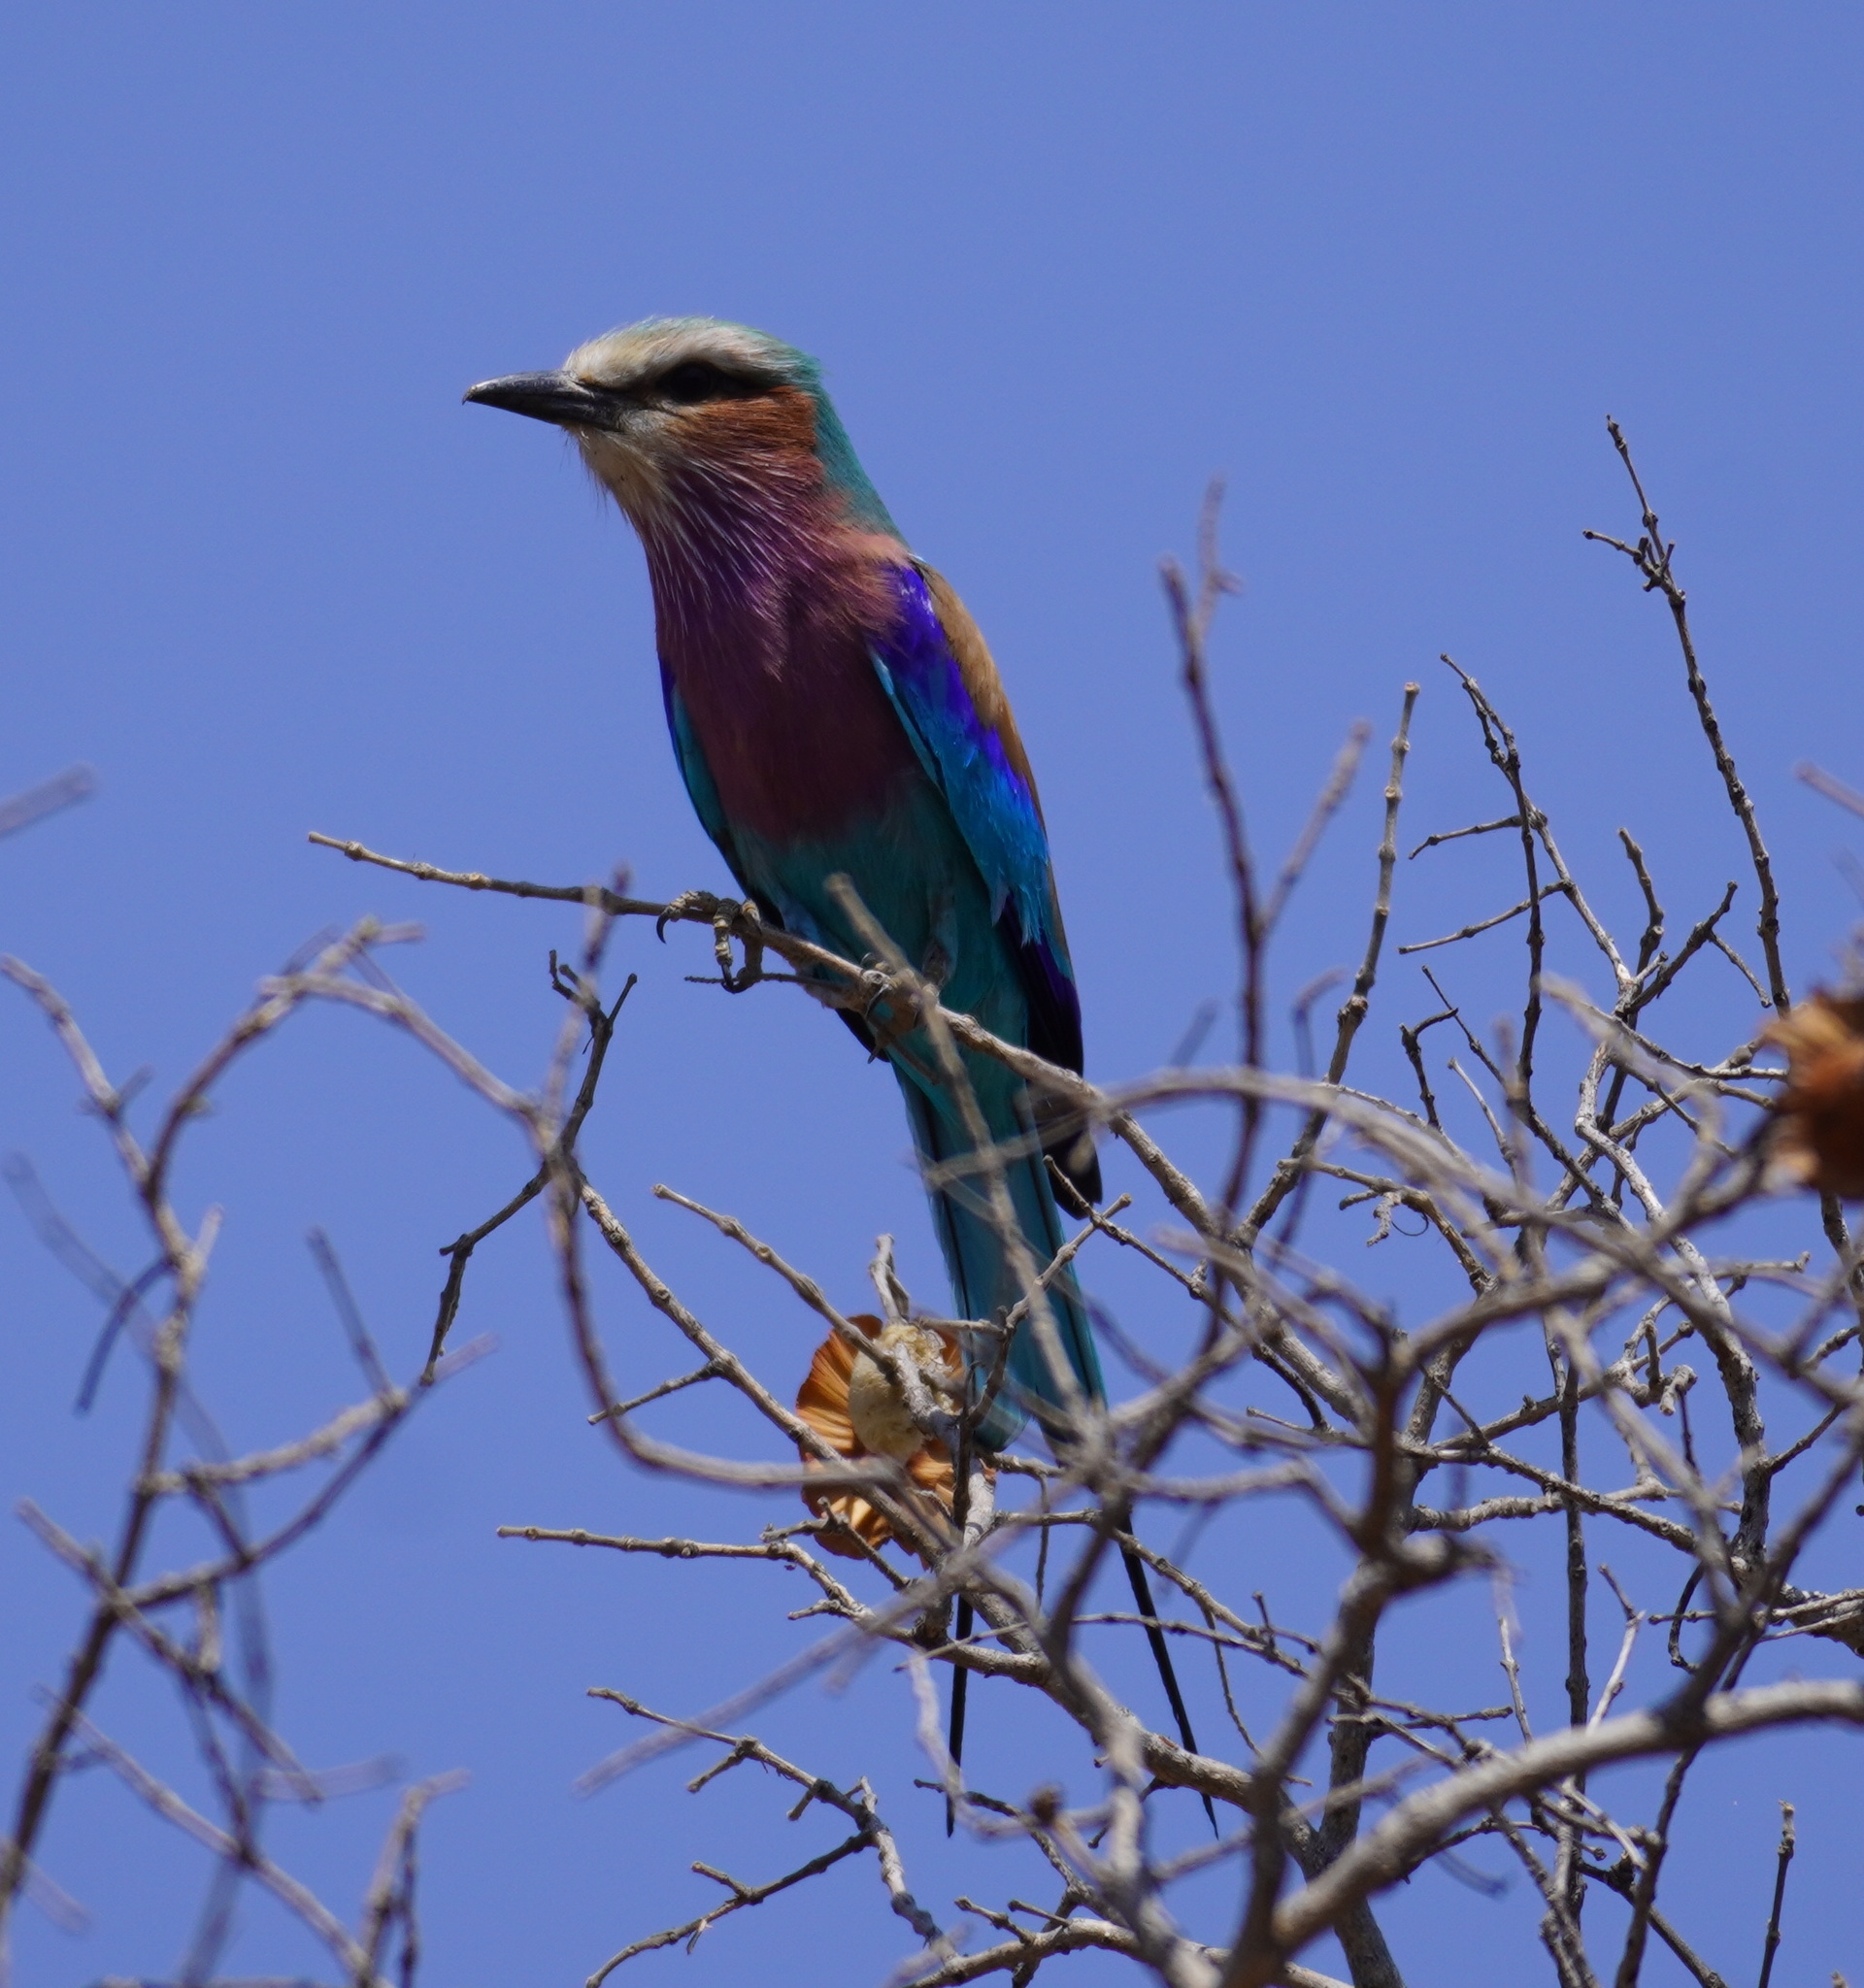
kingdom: Animalia
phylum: Chordata
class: Aves
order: Coraciiformes
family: Coraciidae
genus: Coracias
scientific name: Coracias caudatus
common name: Lilac-breasted roller
